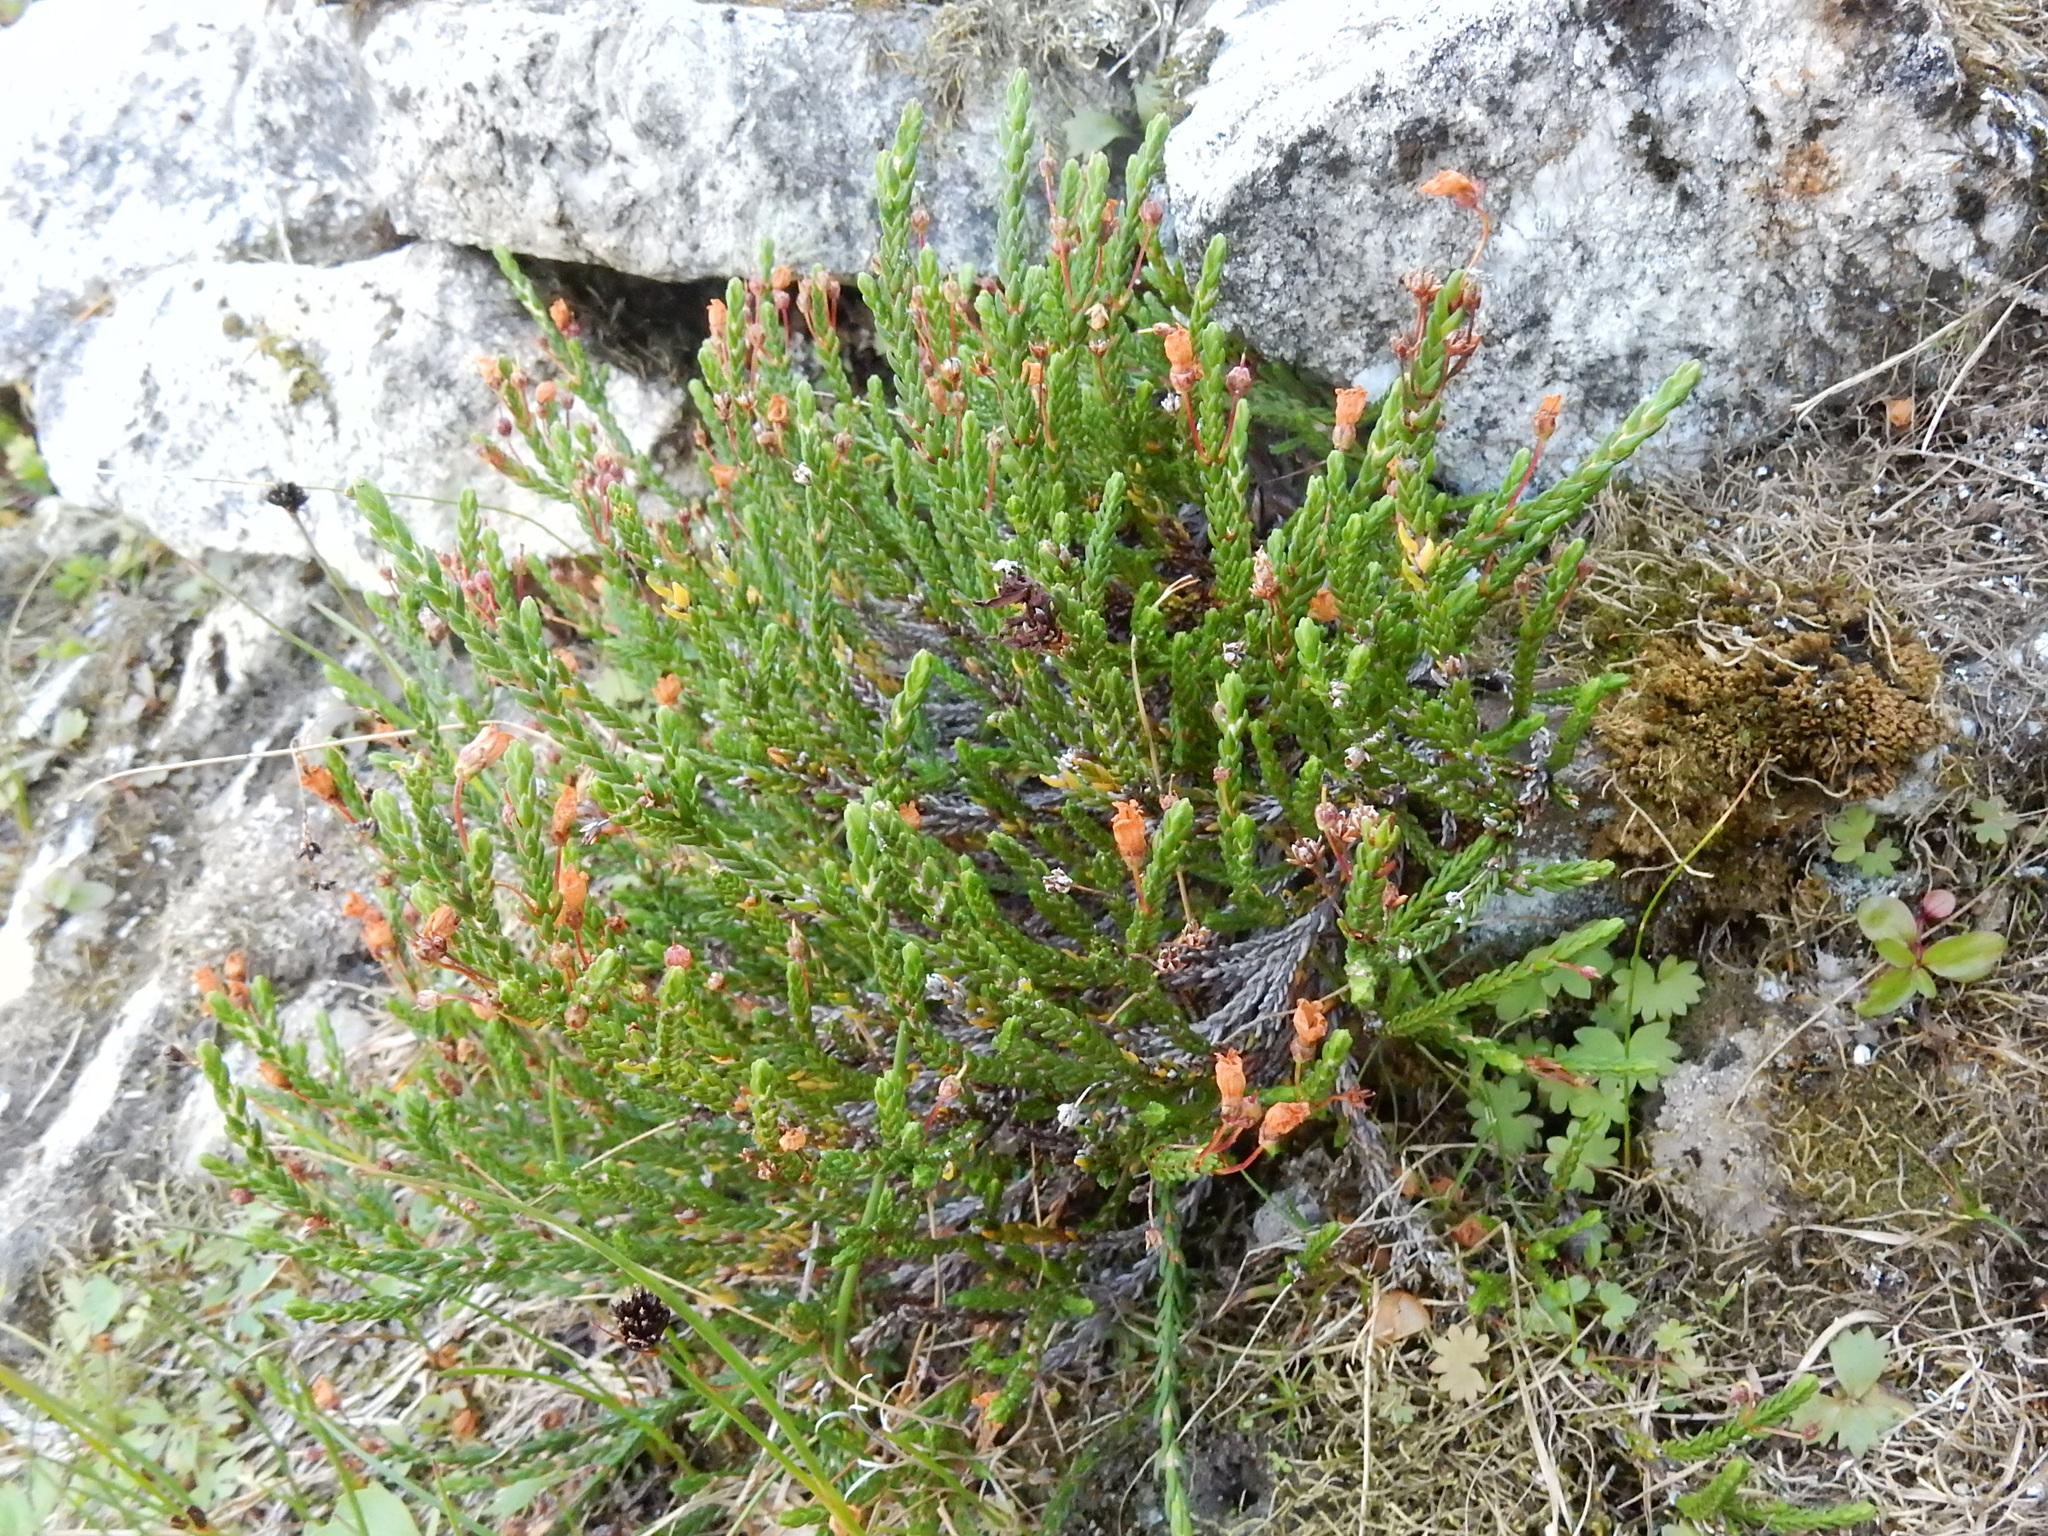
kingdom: Plantae
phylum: Tracheophyta
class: Magnoliopsida
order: Ericales
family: Ericaceae
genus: Cassiope
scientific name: Cassiope mertensiana
